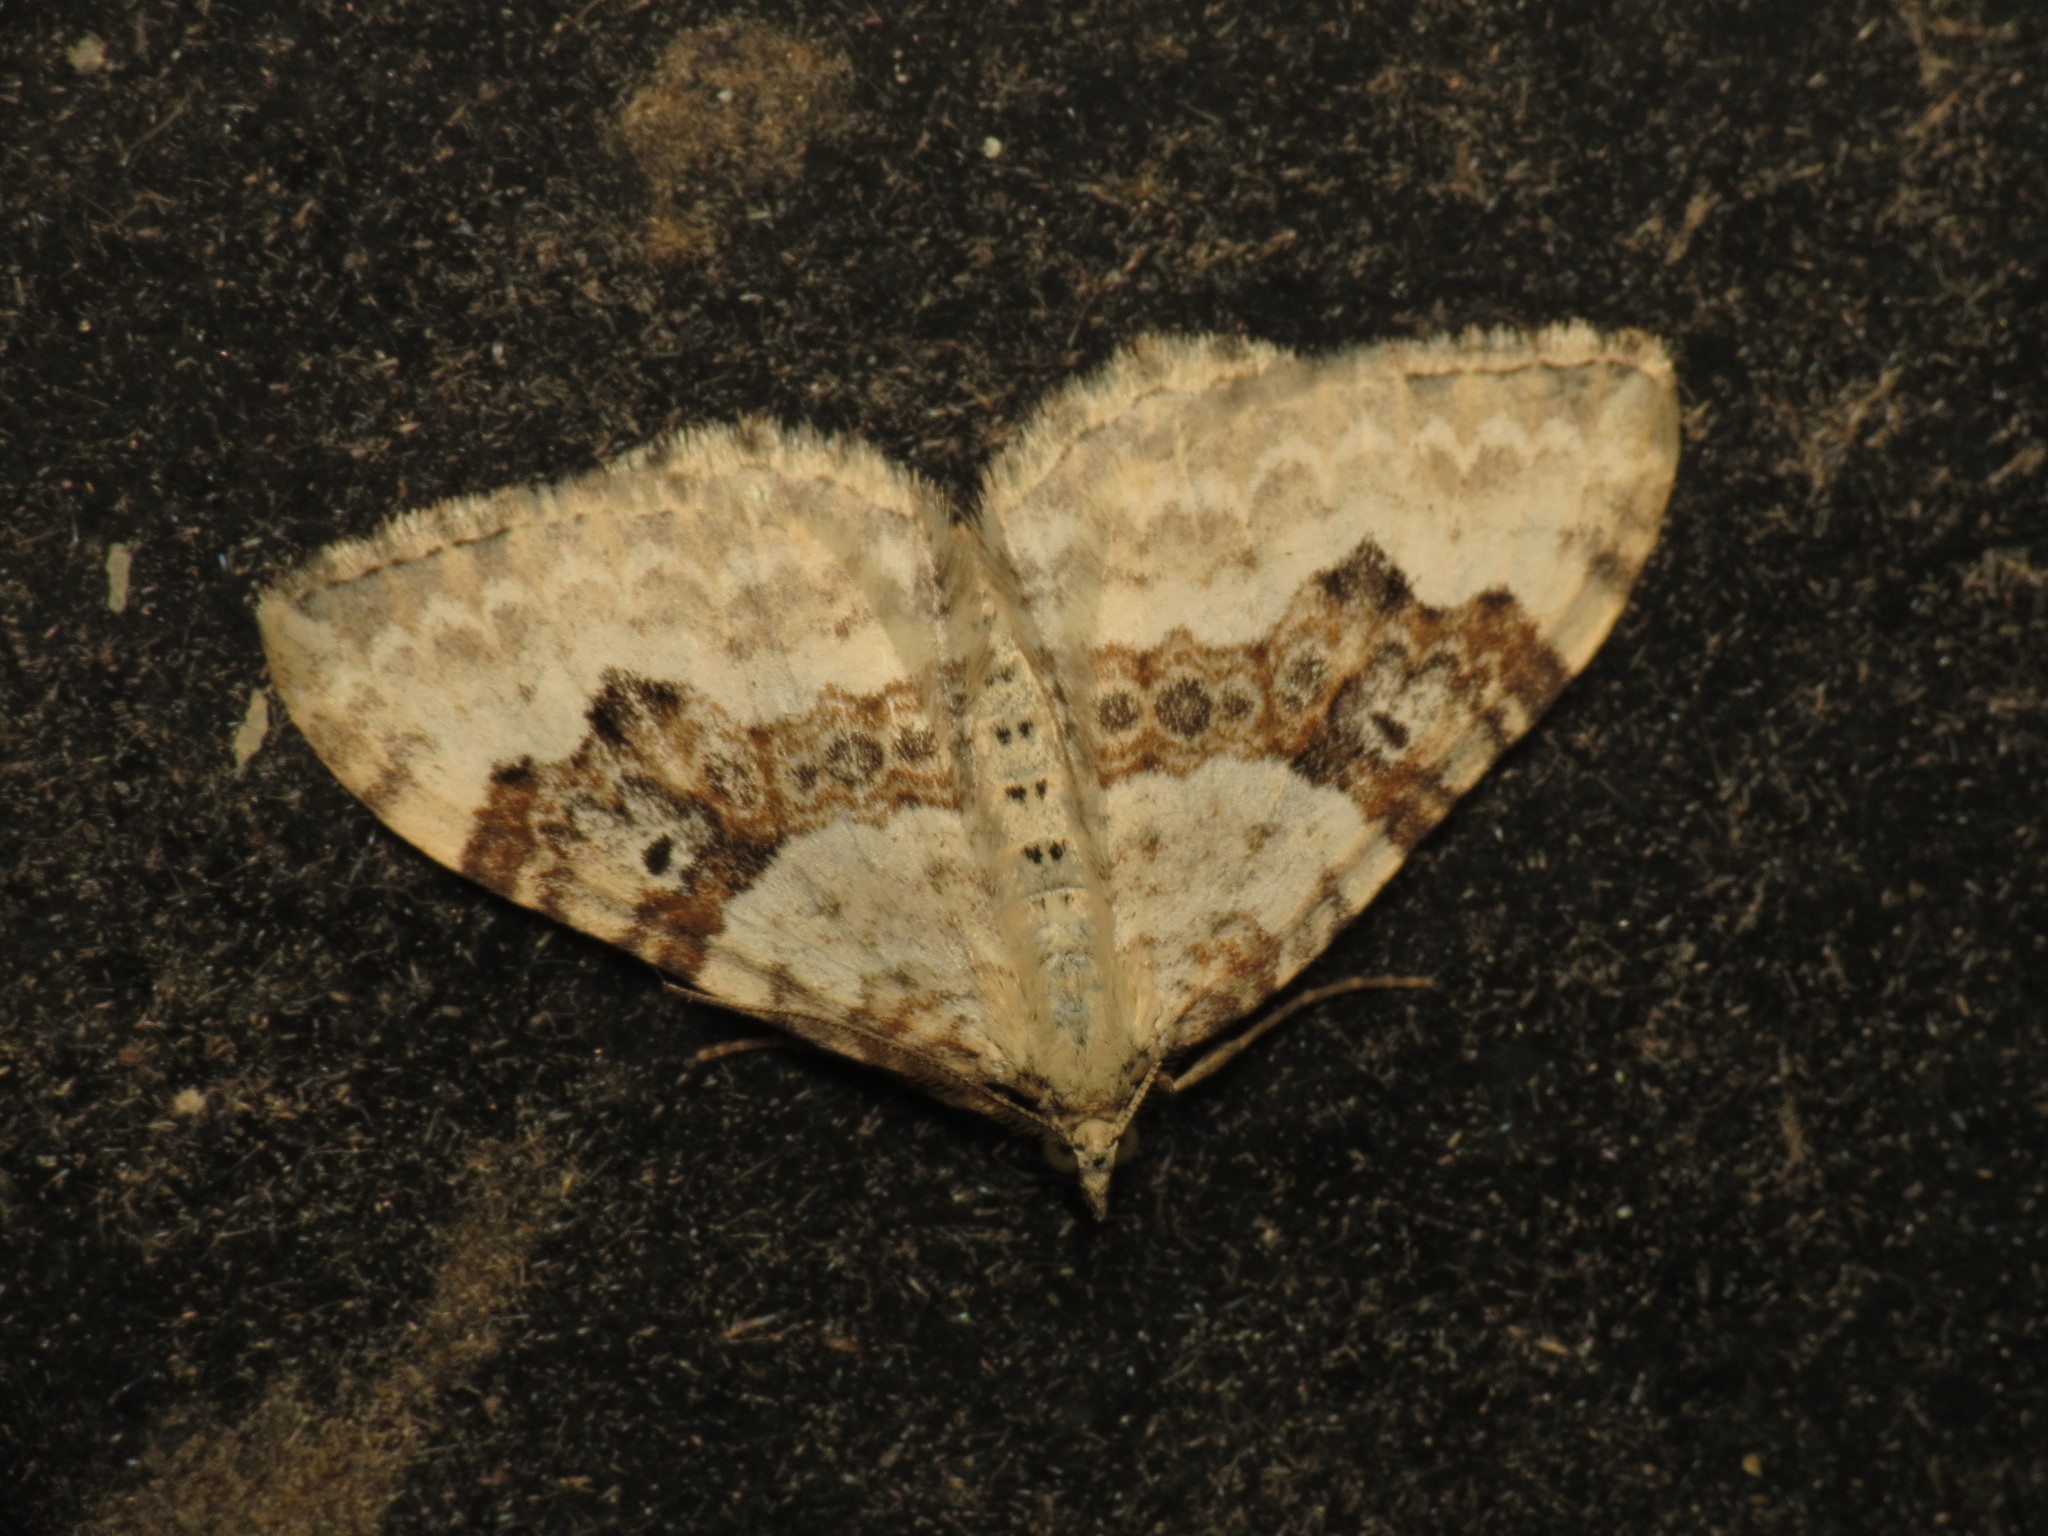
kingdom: Animalia
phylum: Arthropoda
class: Insecta
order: Lepidoptera
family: Geometridae
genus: Xanthorhoe
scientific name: Xanthorhoe montanata
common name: Silver-ground carpet
